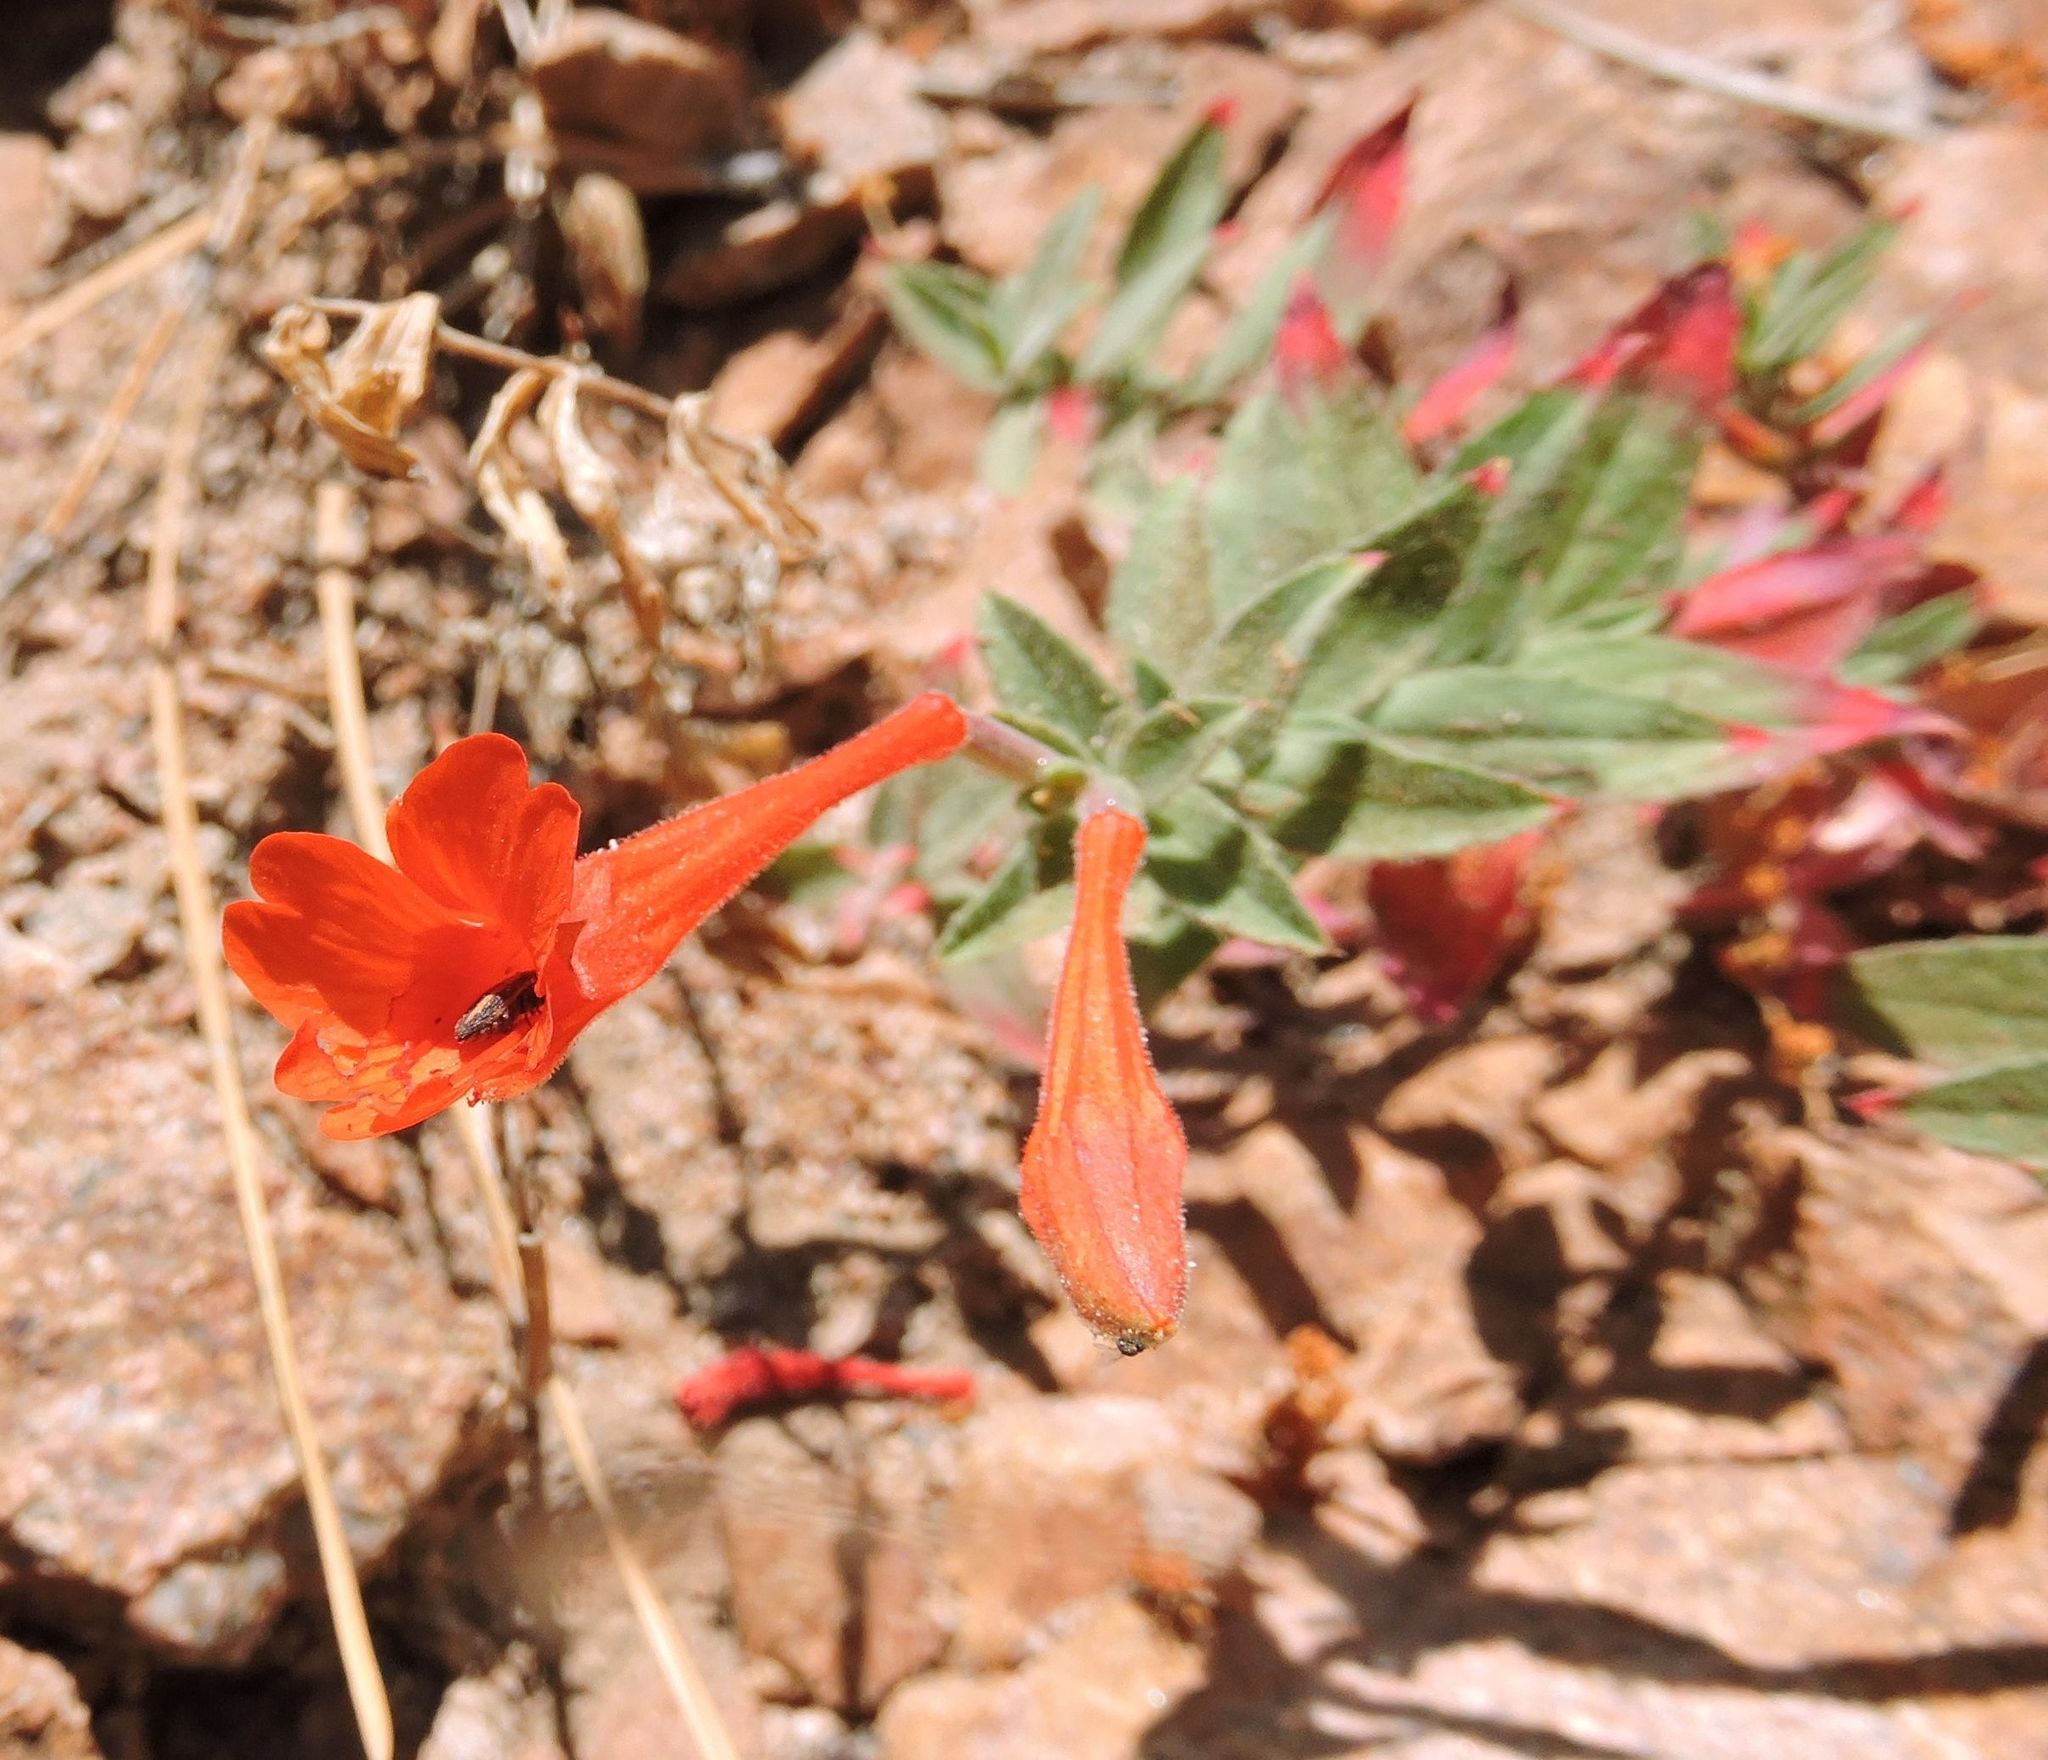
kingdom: Plantae
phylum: Tracheophyta
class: Magnoliopsida
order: Myrtales
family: Onagraceae
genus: Epilobium
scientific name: Epilobium canum
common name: California-fuchsia
